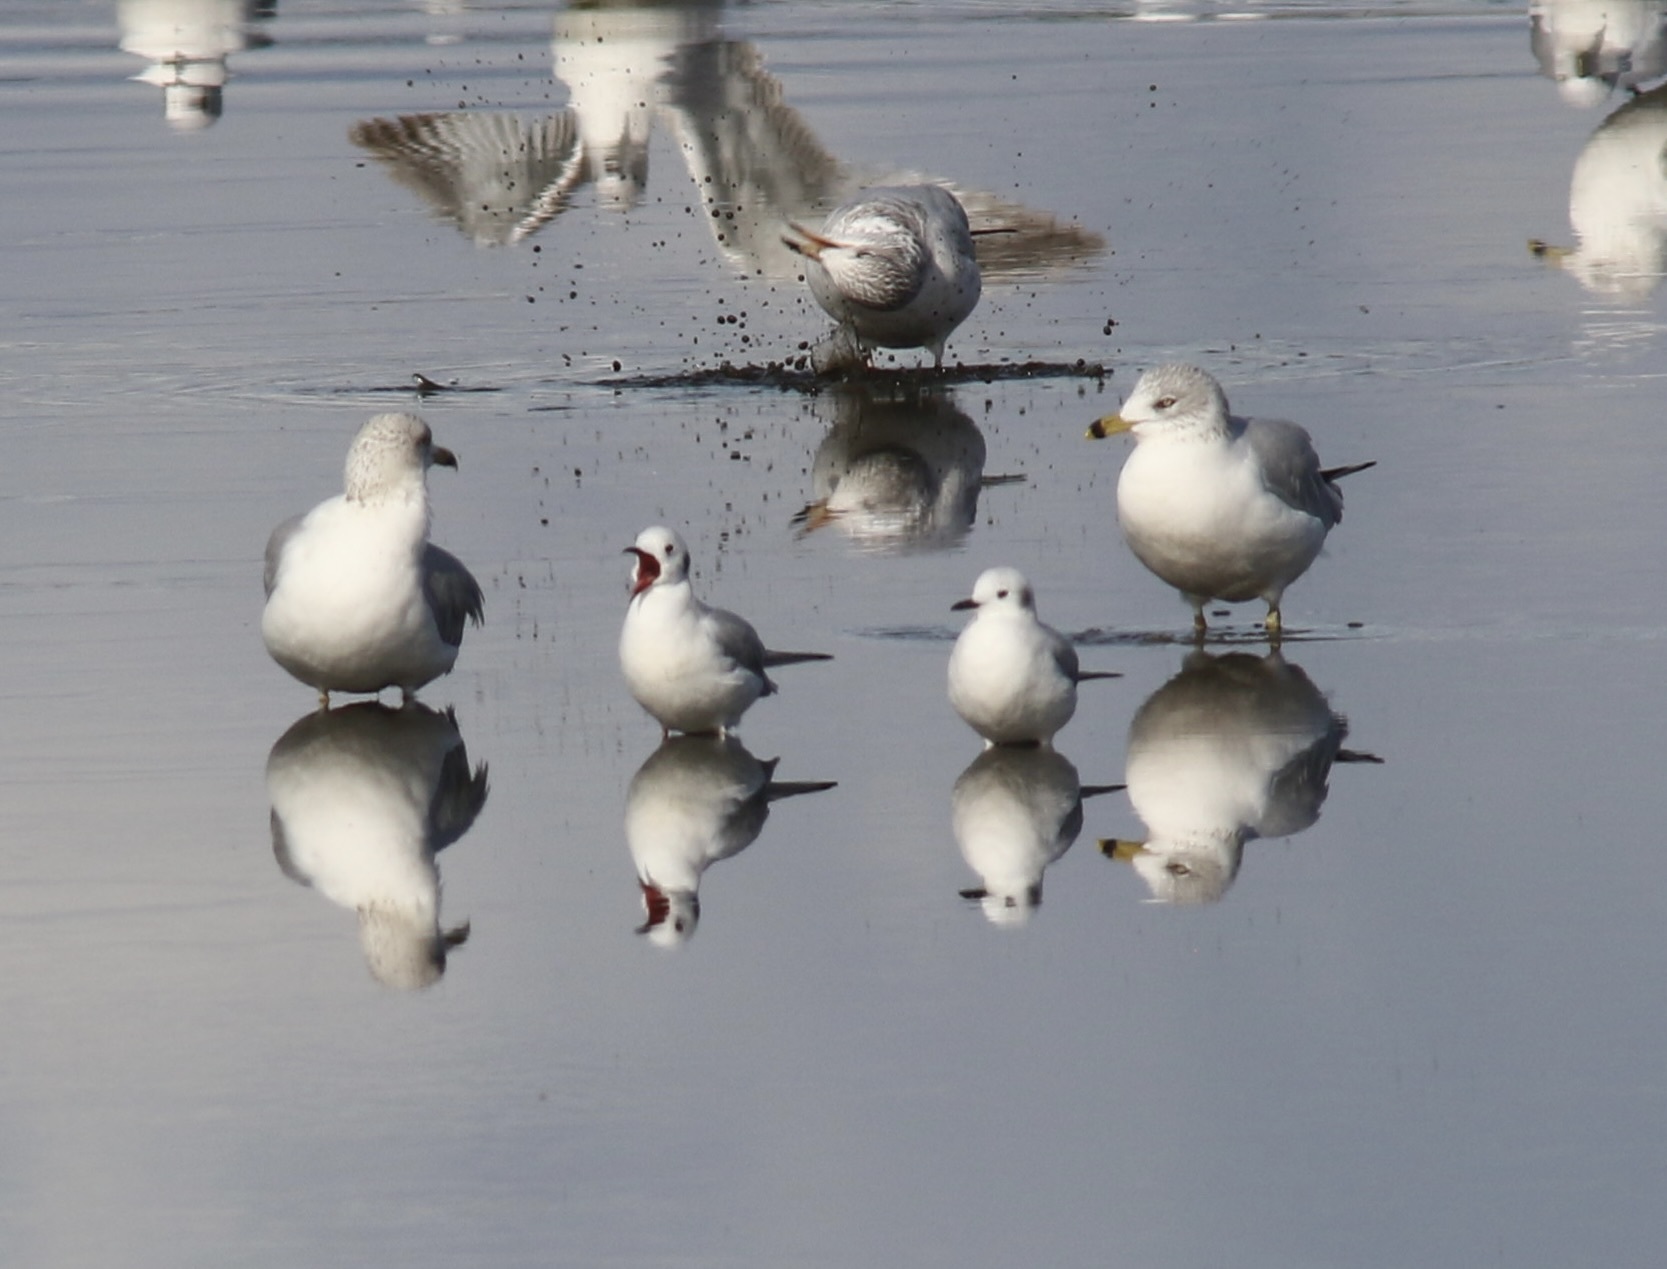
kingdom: Animalia
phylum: Chordata
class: Aves
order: Charadriiformes
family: Laridae
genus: Chroicocephalus
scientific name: Chroicocephalus philadelphia
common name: Bonaparte's gull
